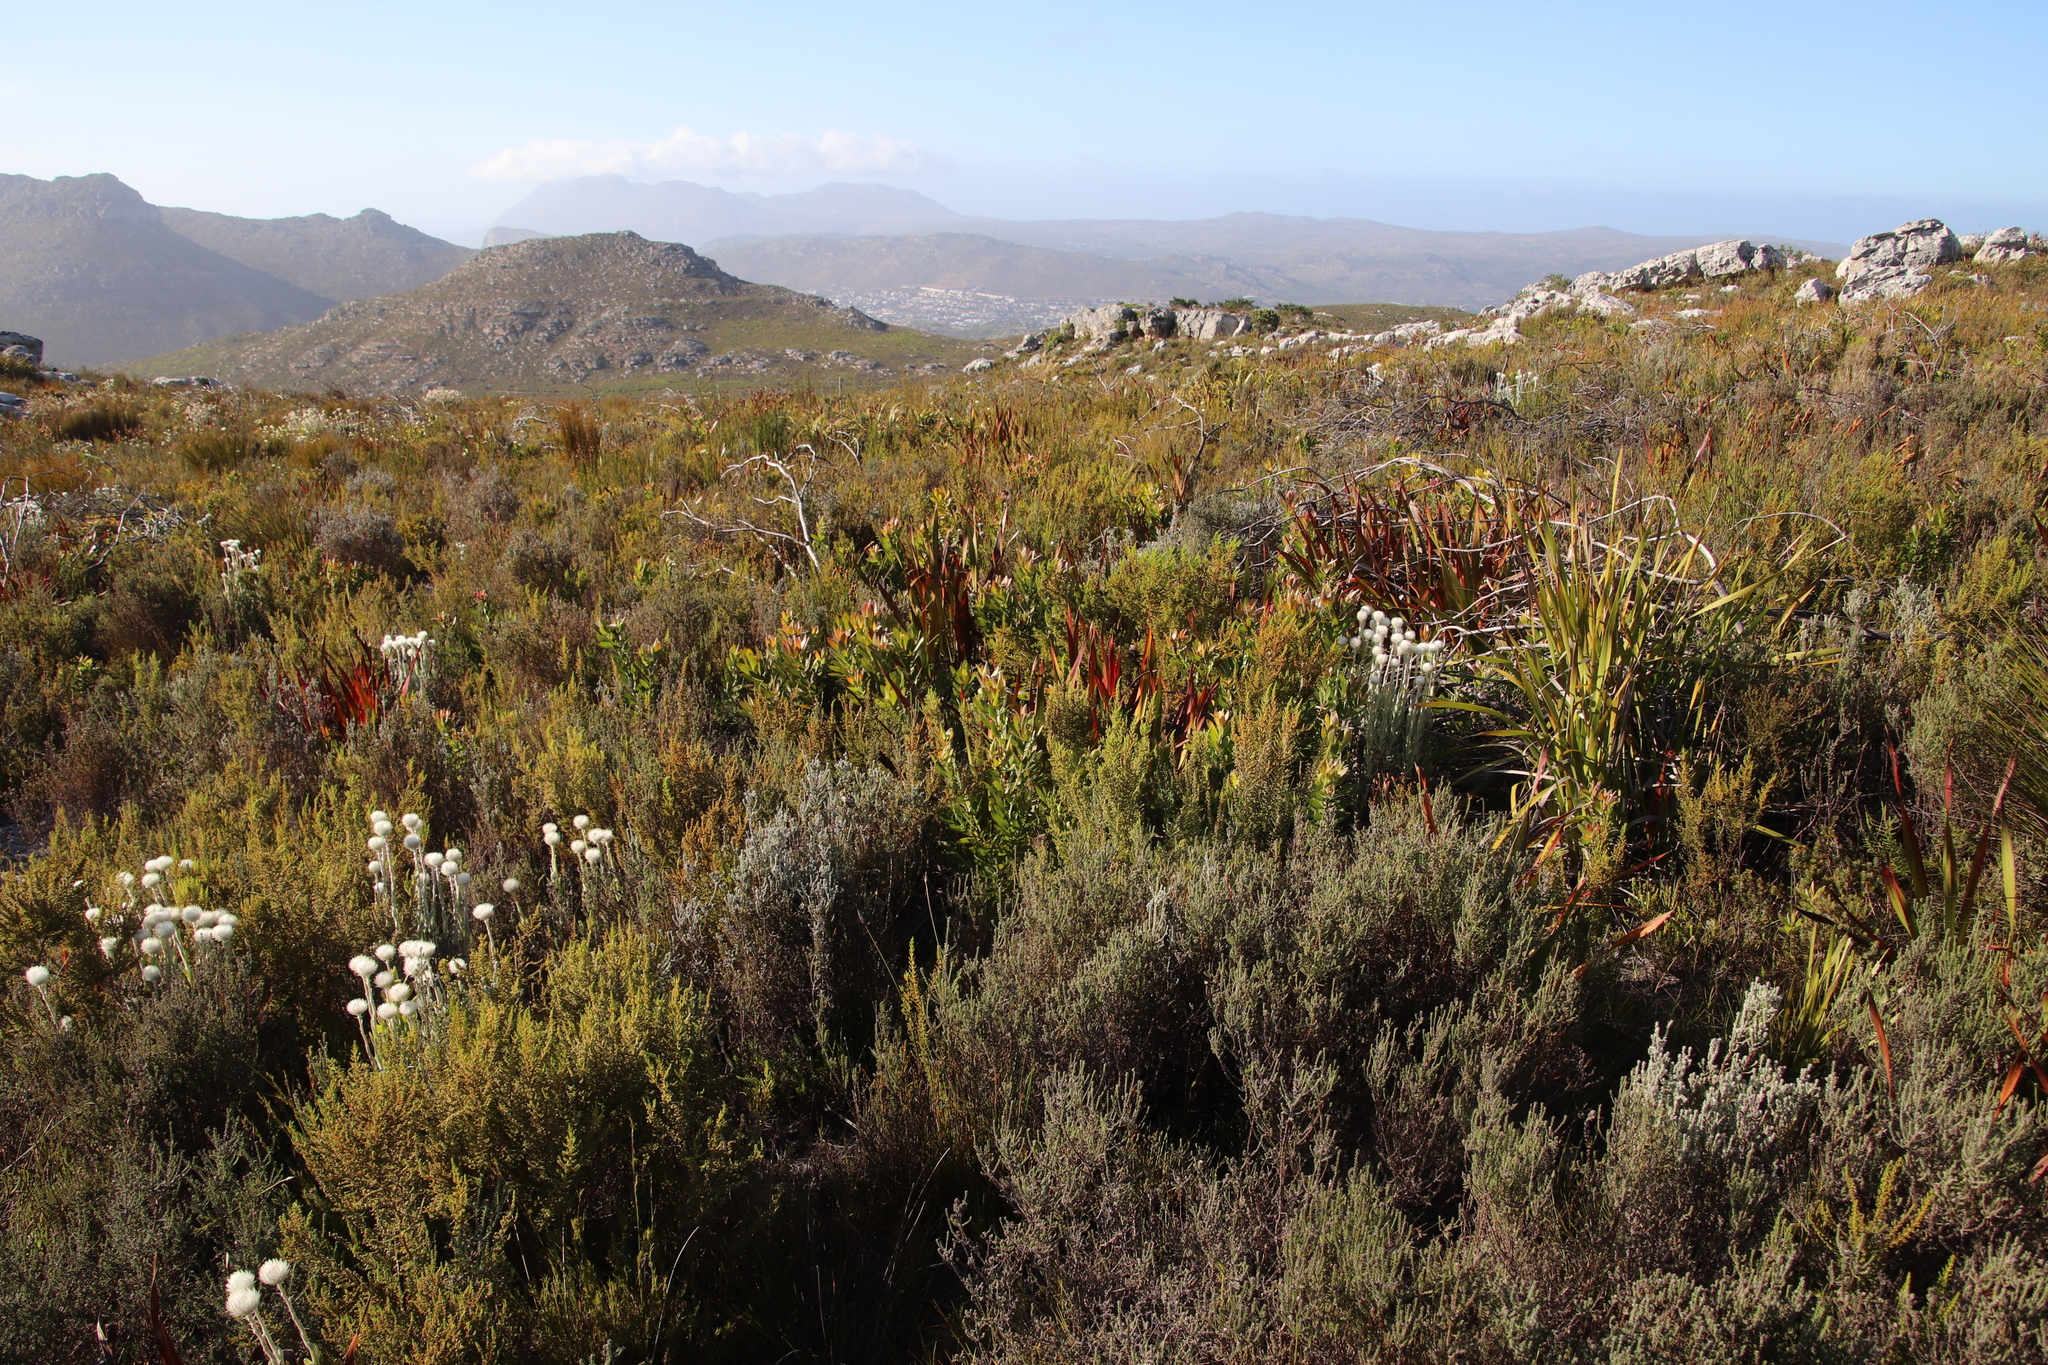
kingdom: Plantae
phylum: Tracheophyta
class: Magnoliopsida
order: Proteales
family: Proteaceae
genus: Leucadendron
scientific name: Leucadendron laureolum
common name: Golden sunshinebush
